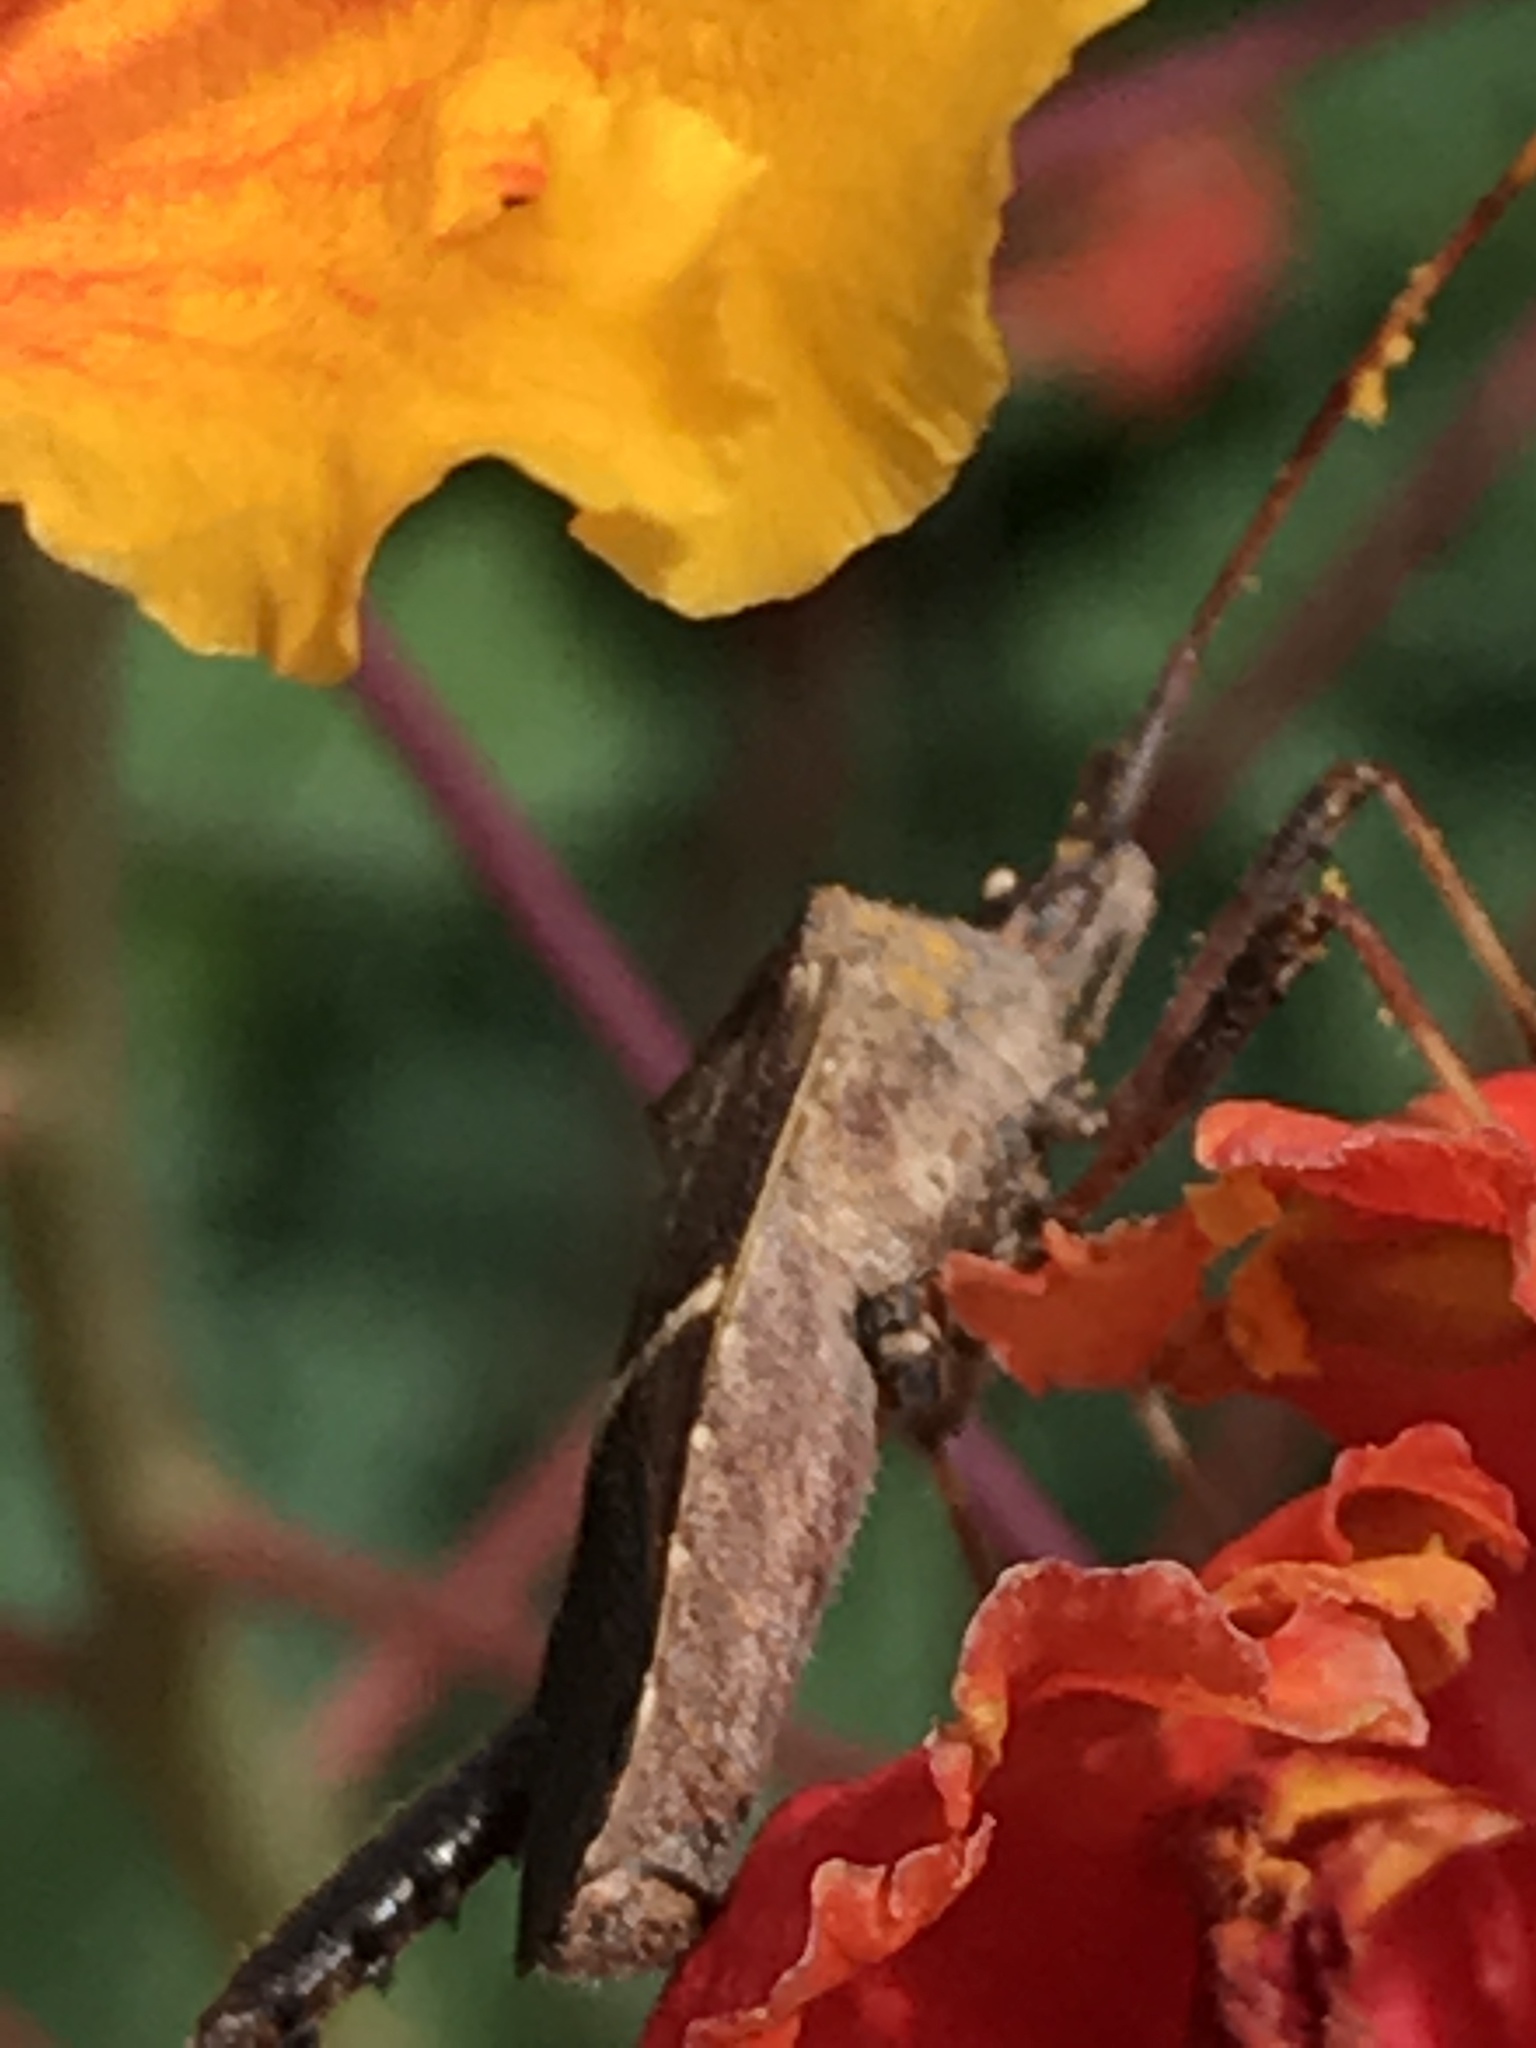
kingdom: Animalia
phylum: Arthropoda
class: Insecta
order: Hemiptera
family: Coreidae
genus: Leptoglossus
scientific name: Leptoglossus phyllopus
